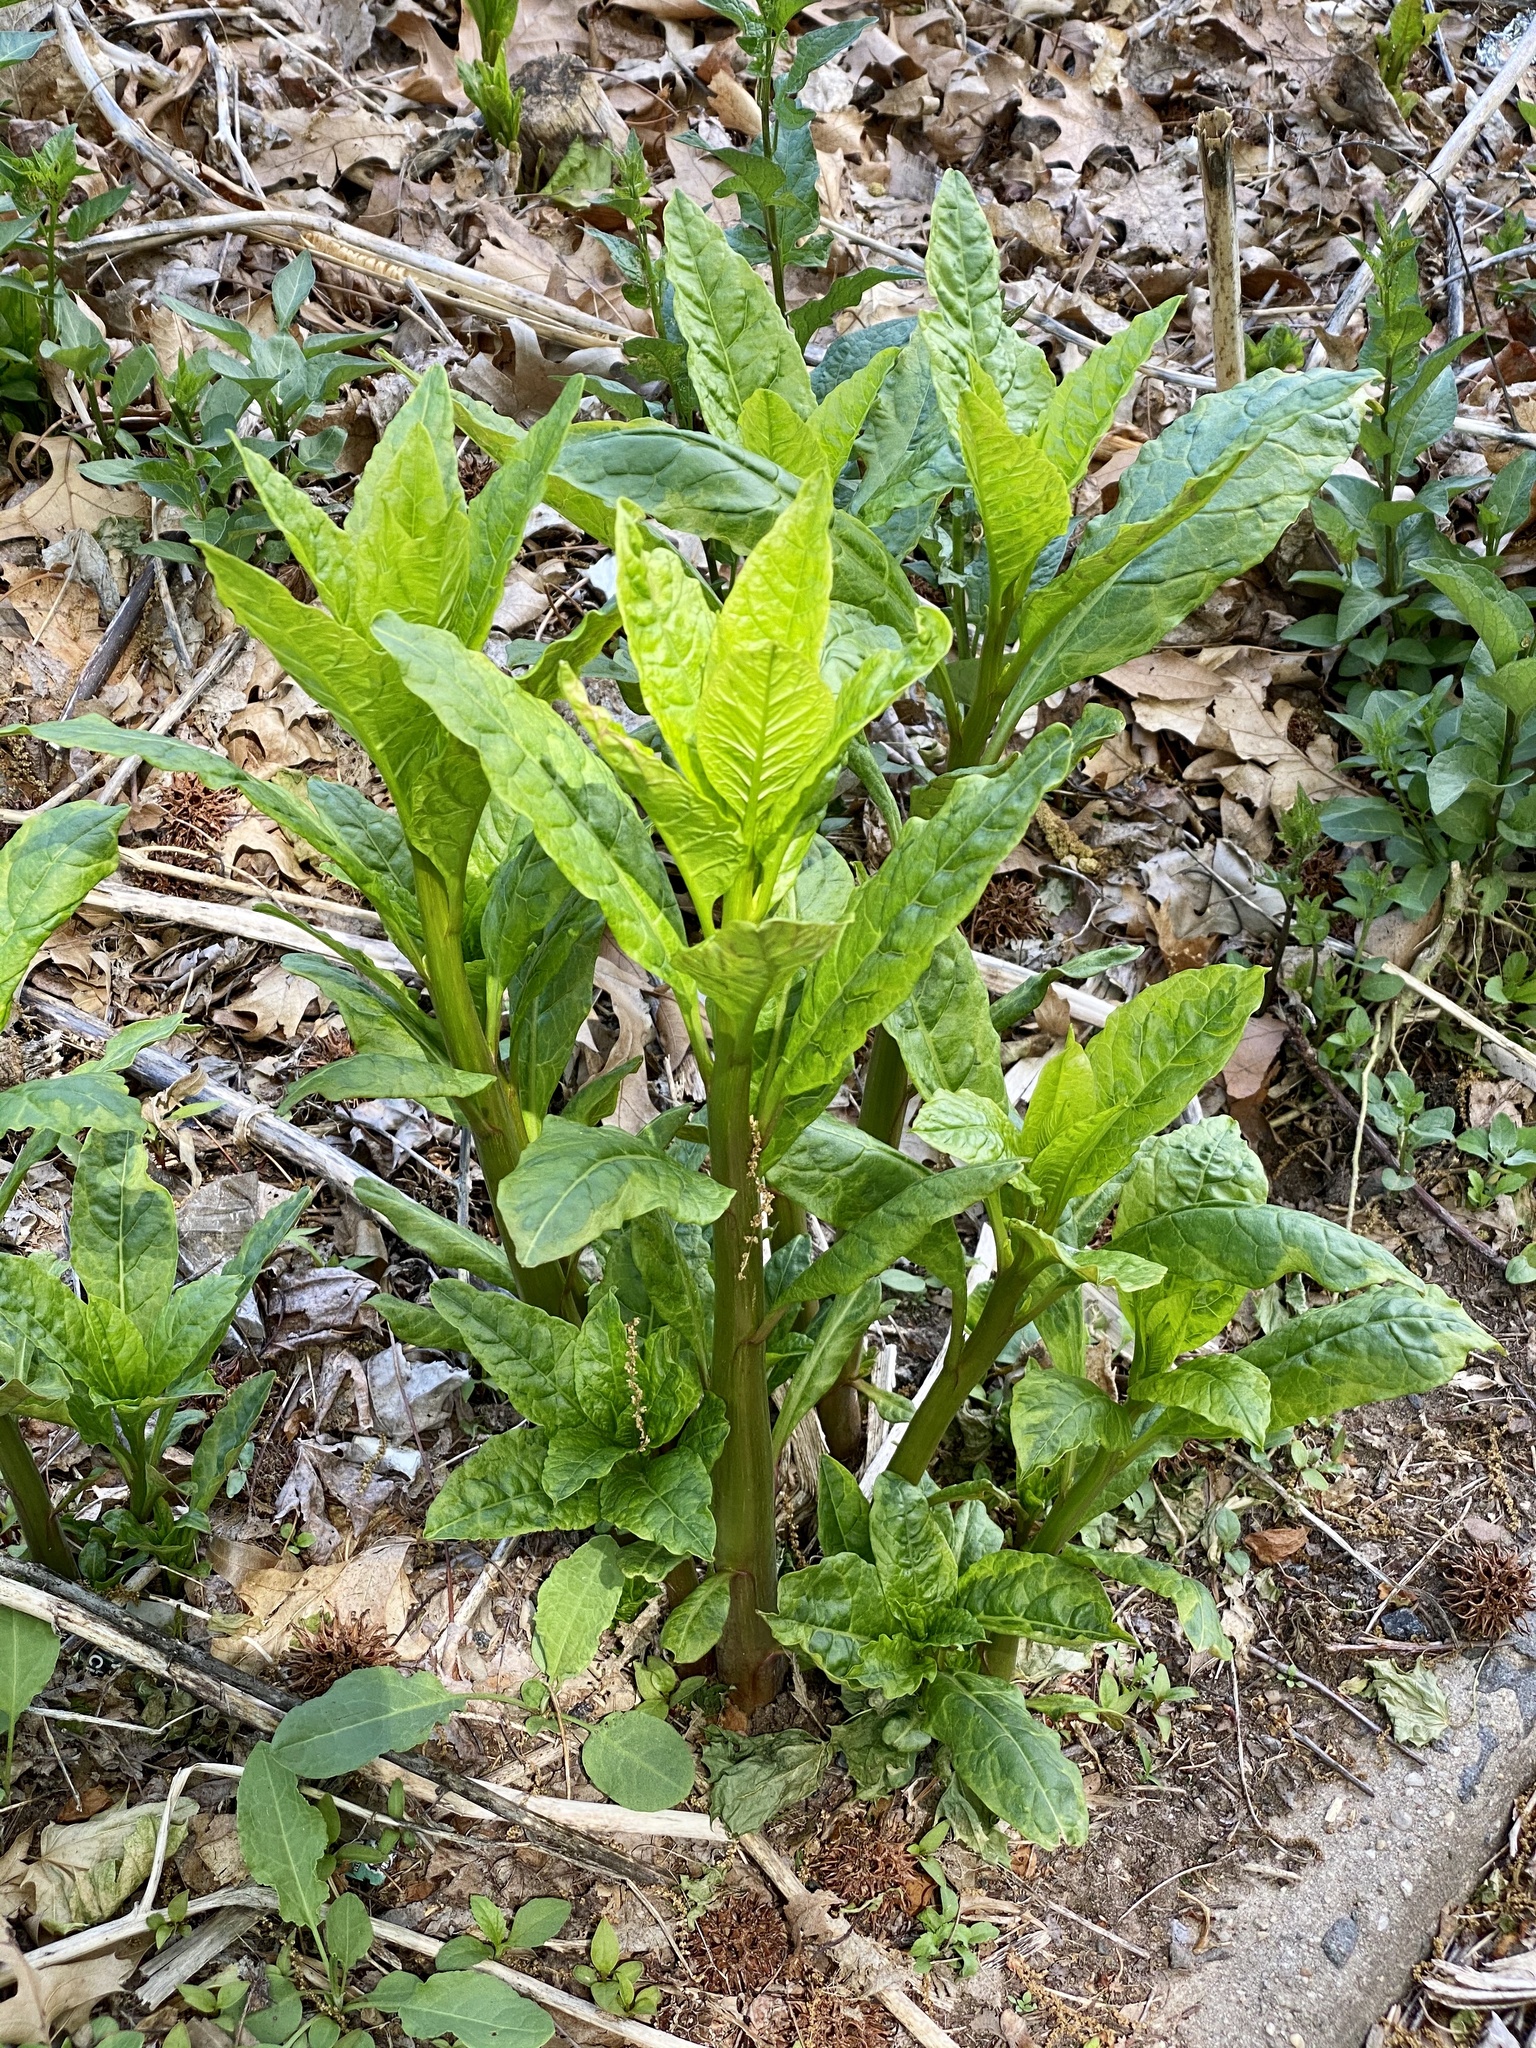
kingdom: Plantae
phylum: Tracheophyta
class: Magnoliopsida
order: Caryophyllales
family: Phytolaccaceae
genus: Phytolacca
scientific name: Phytolacca americana
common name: American pokeweed
